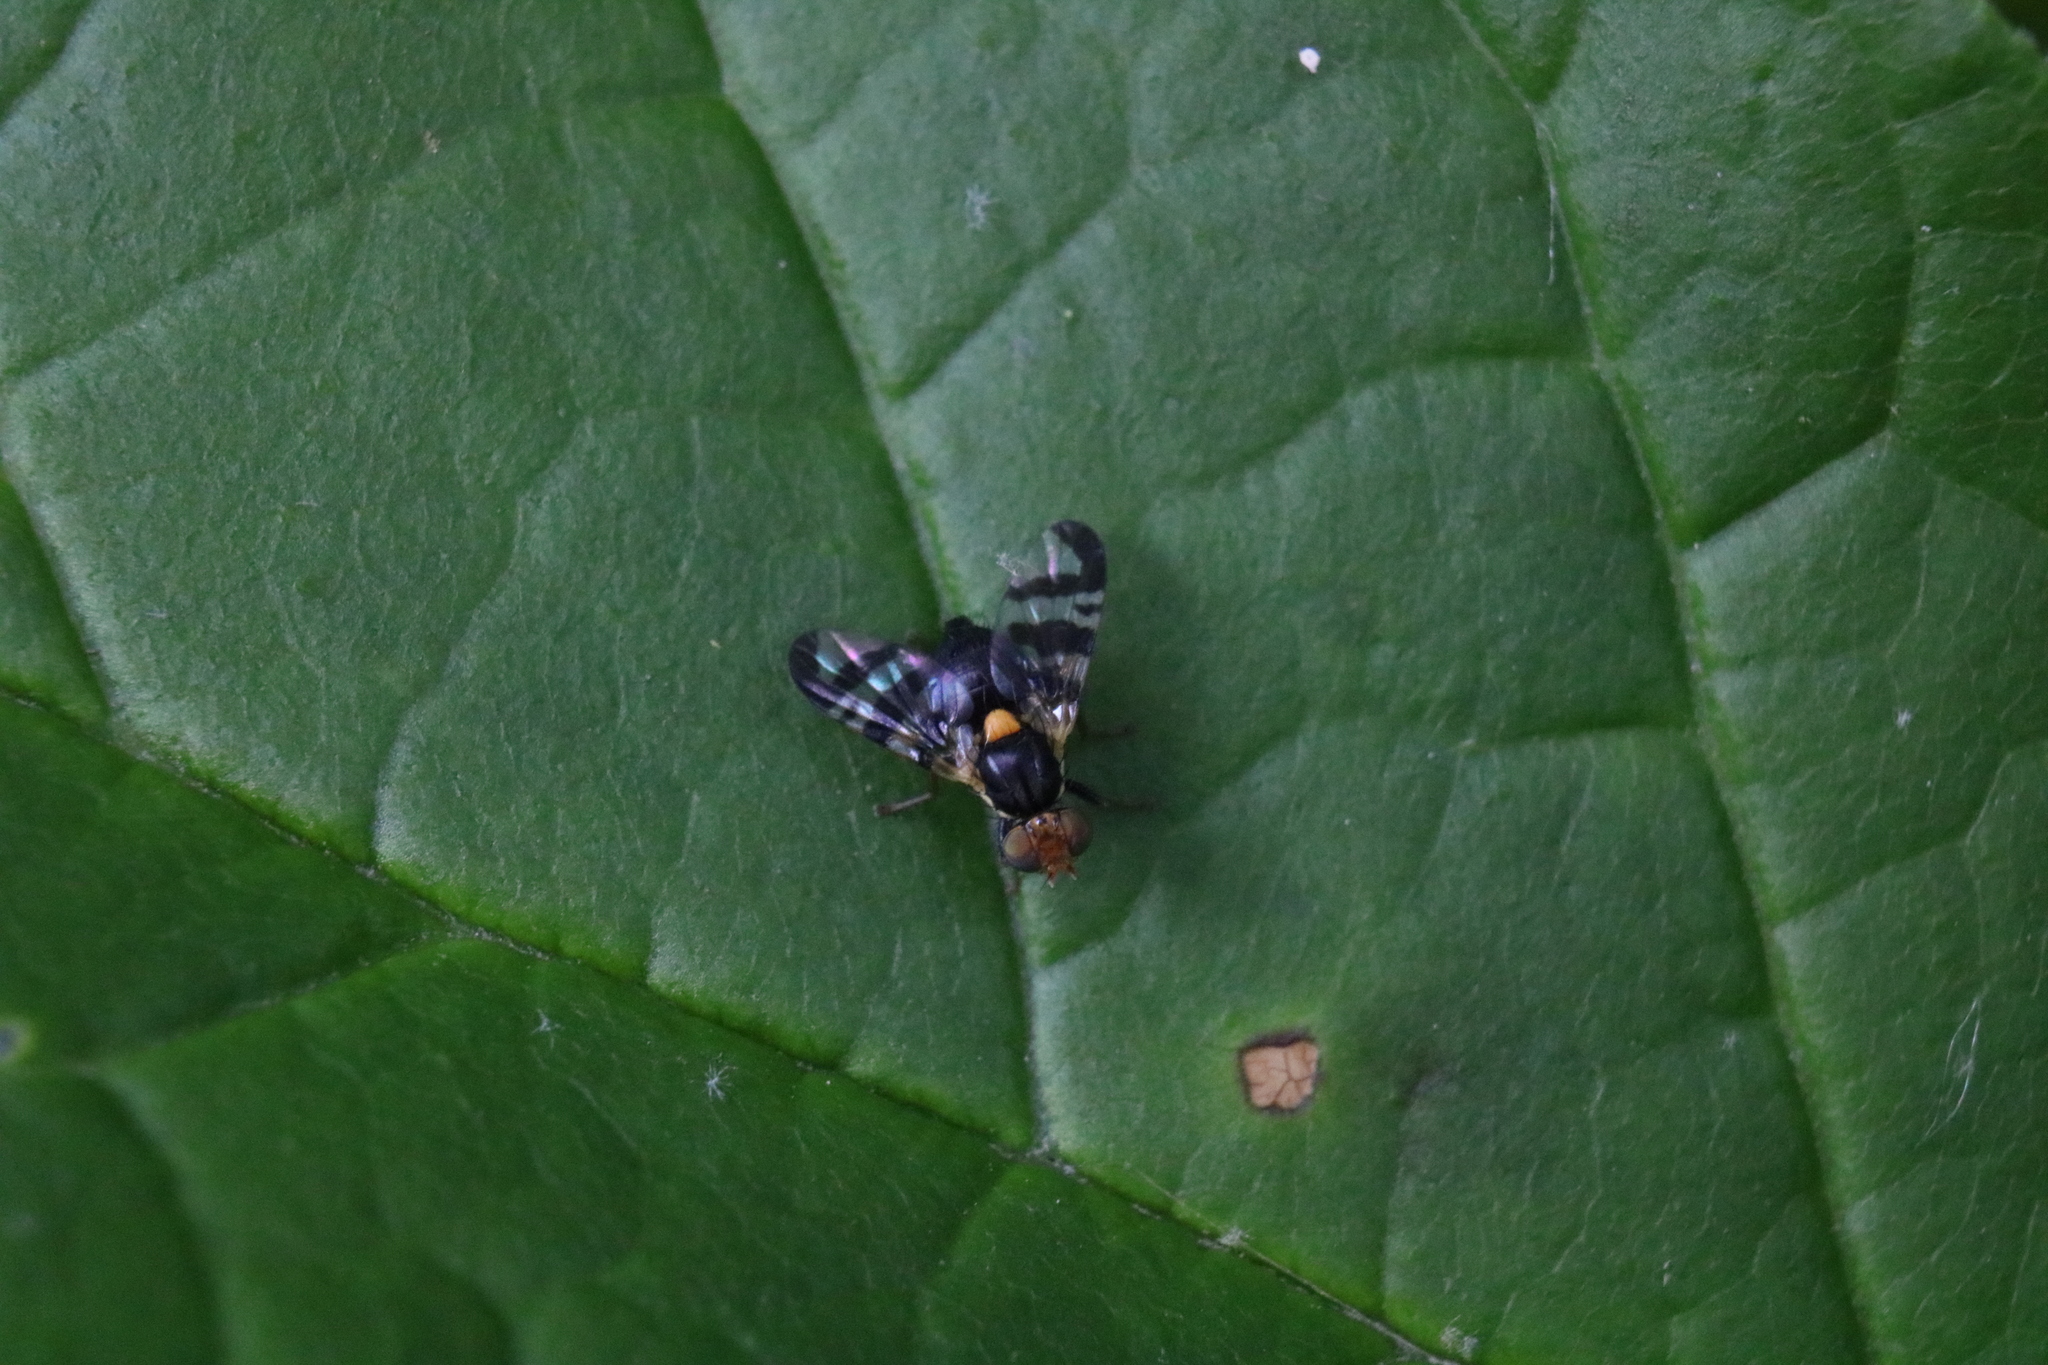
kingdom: Animalia
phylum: Arthropoda
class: Insecta
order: Diptera
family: Tephritidae
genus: Rhagoletis
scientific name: Rhagoletis cerasi
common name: European cherry fruit fly
